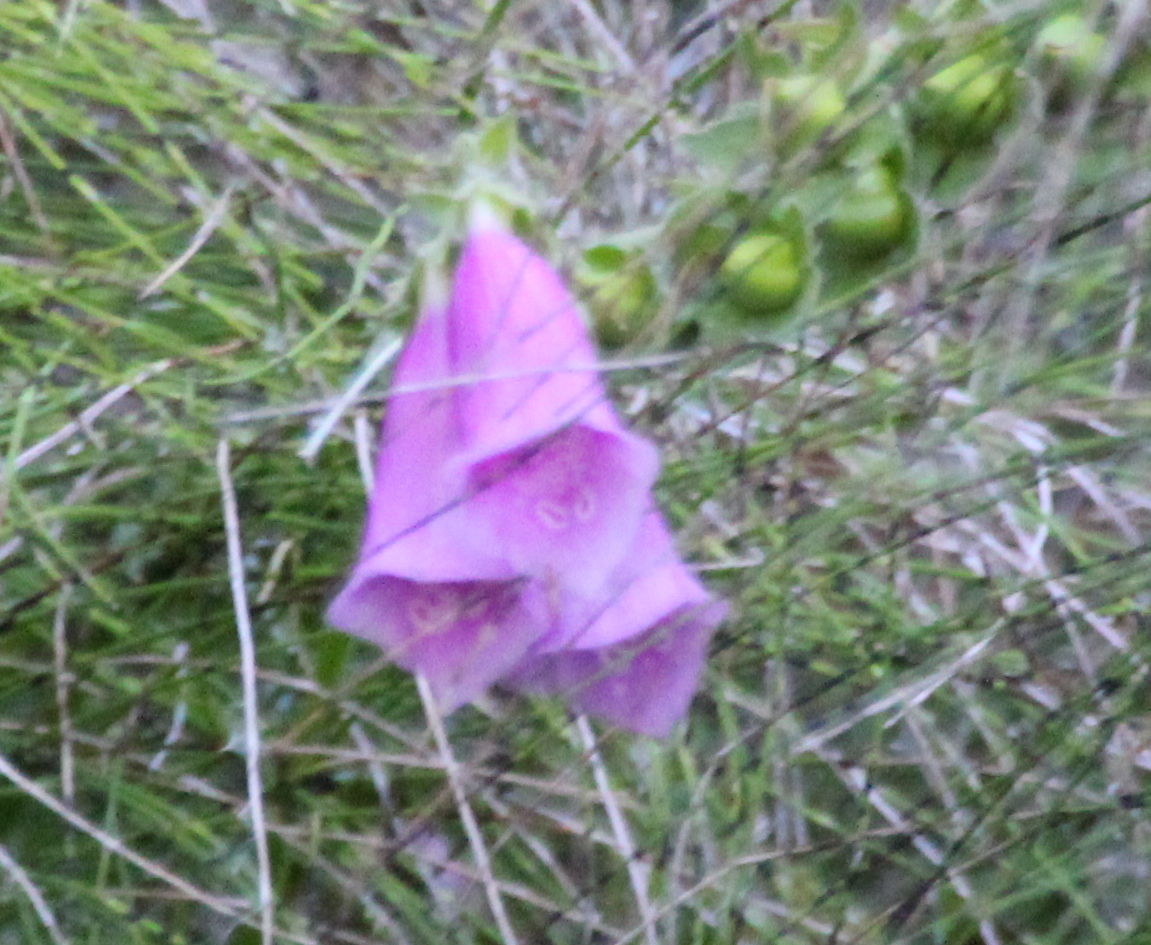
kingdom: Plantae
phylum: Tracheophyta
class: Magnoliopsida
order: Lamiales
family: Plantaginaceae
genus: Digitalis
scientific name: Digitalis purpurea
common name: Foxglove
